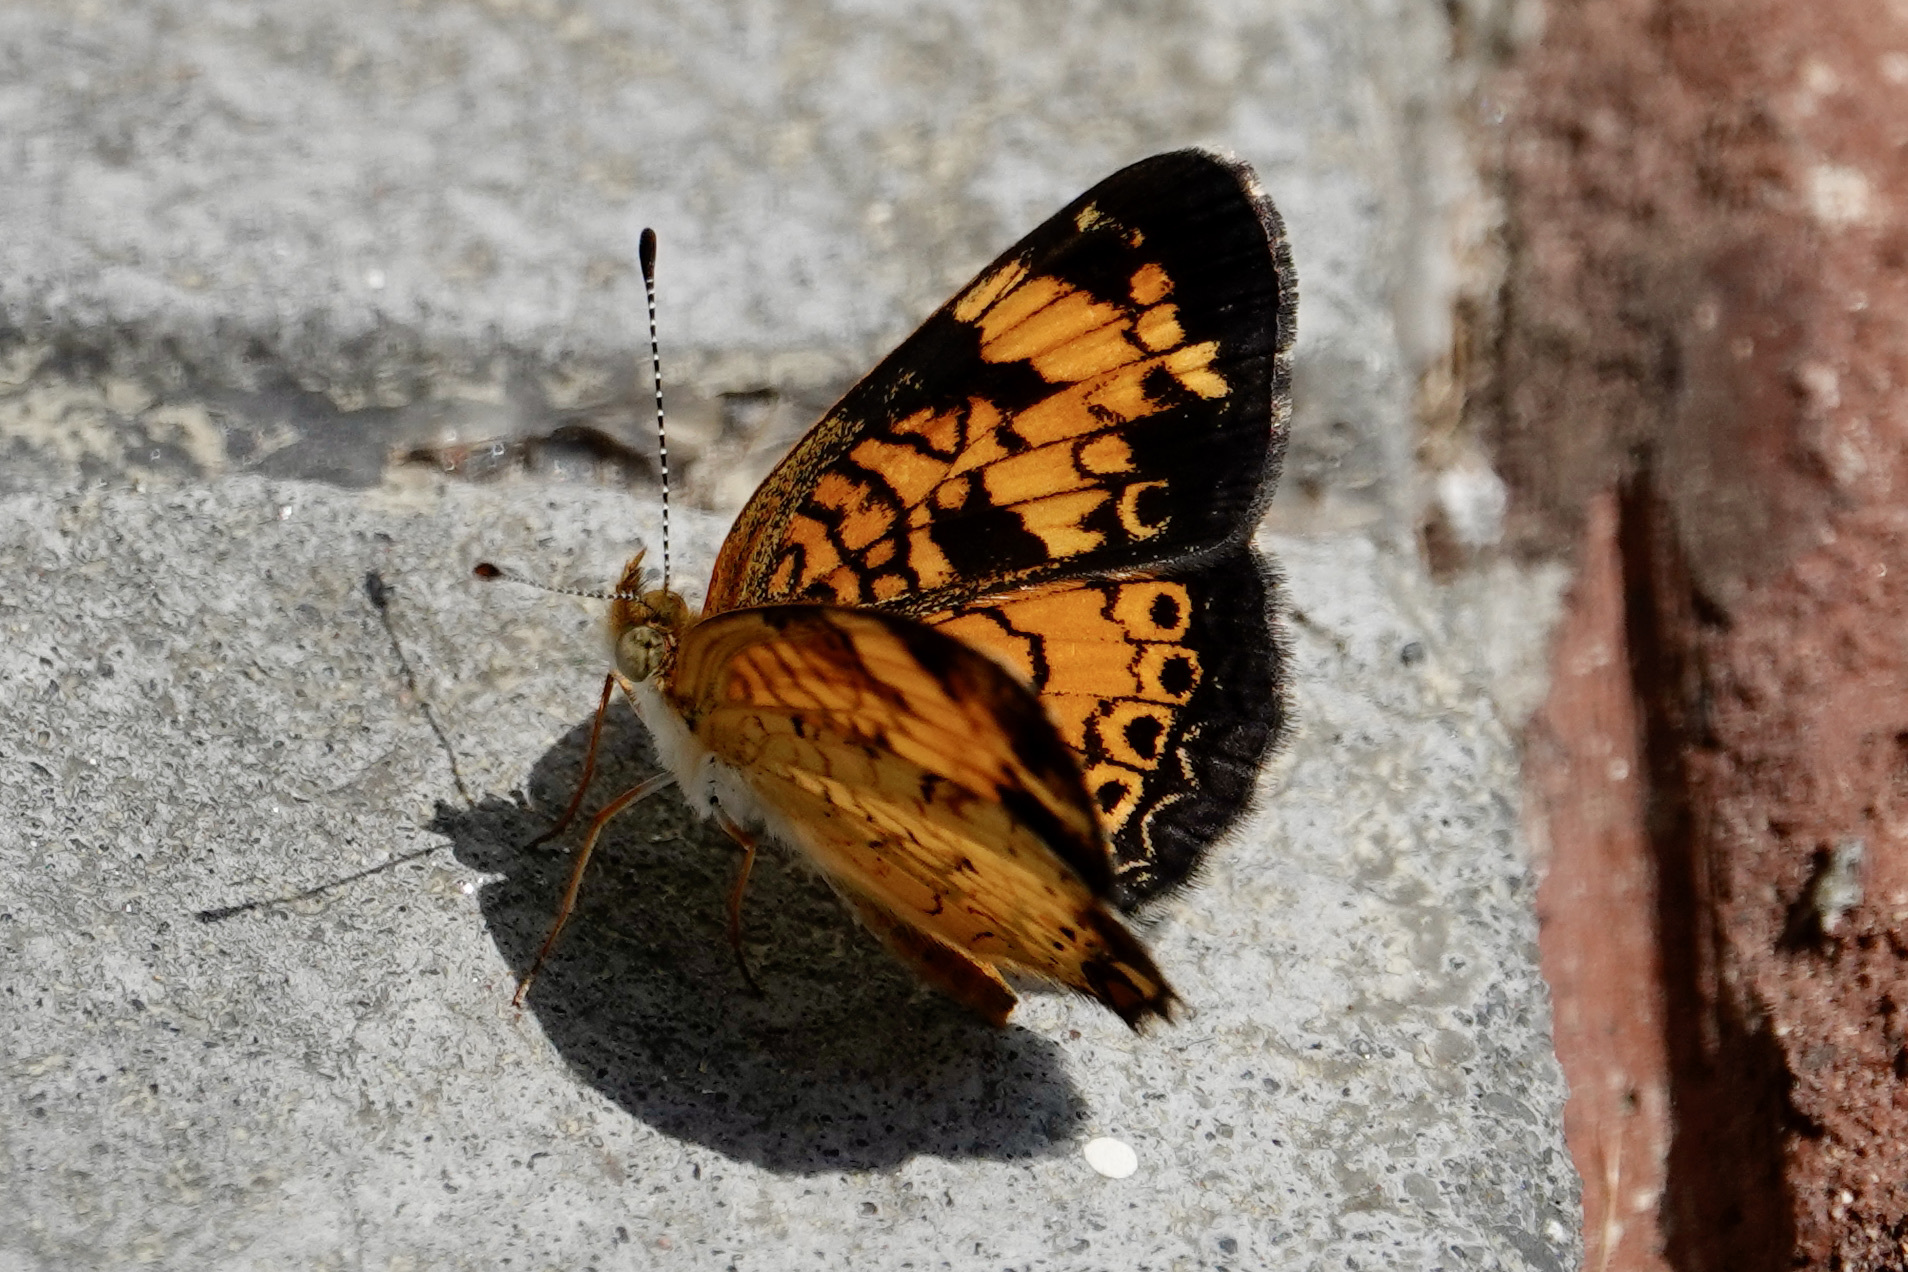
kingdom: Animalia
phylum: Arthropoda
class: Insecta
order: Lepidoptera
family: Nymphalidae
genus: Phyciodes
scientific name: Phyciodes tharos
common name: Pearl crescent
